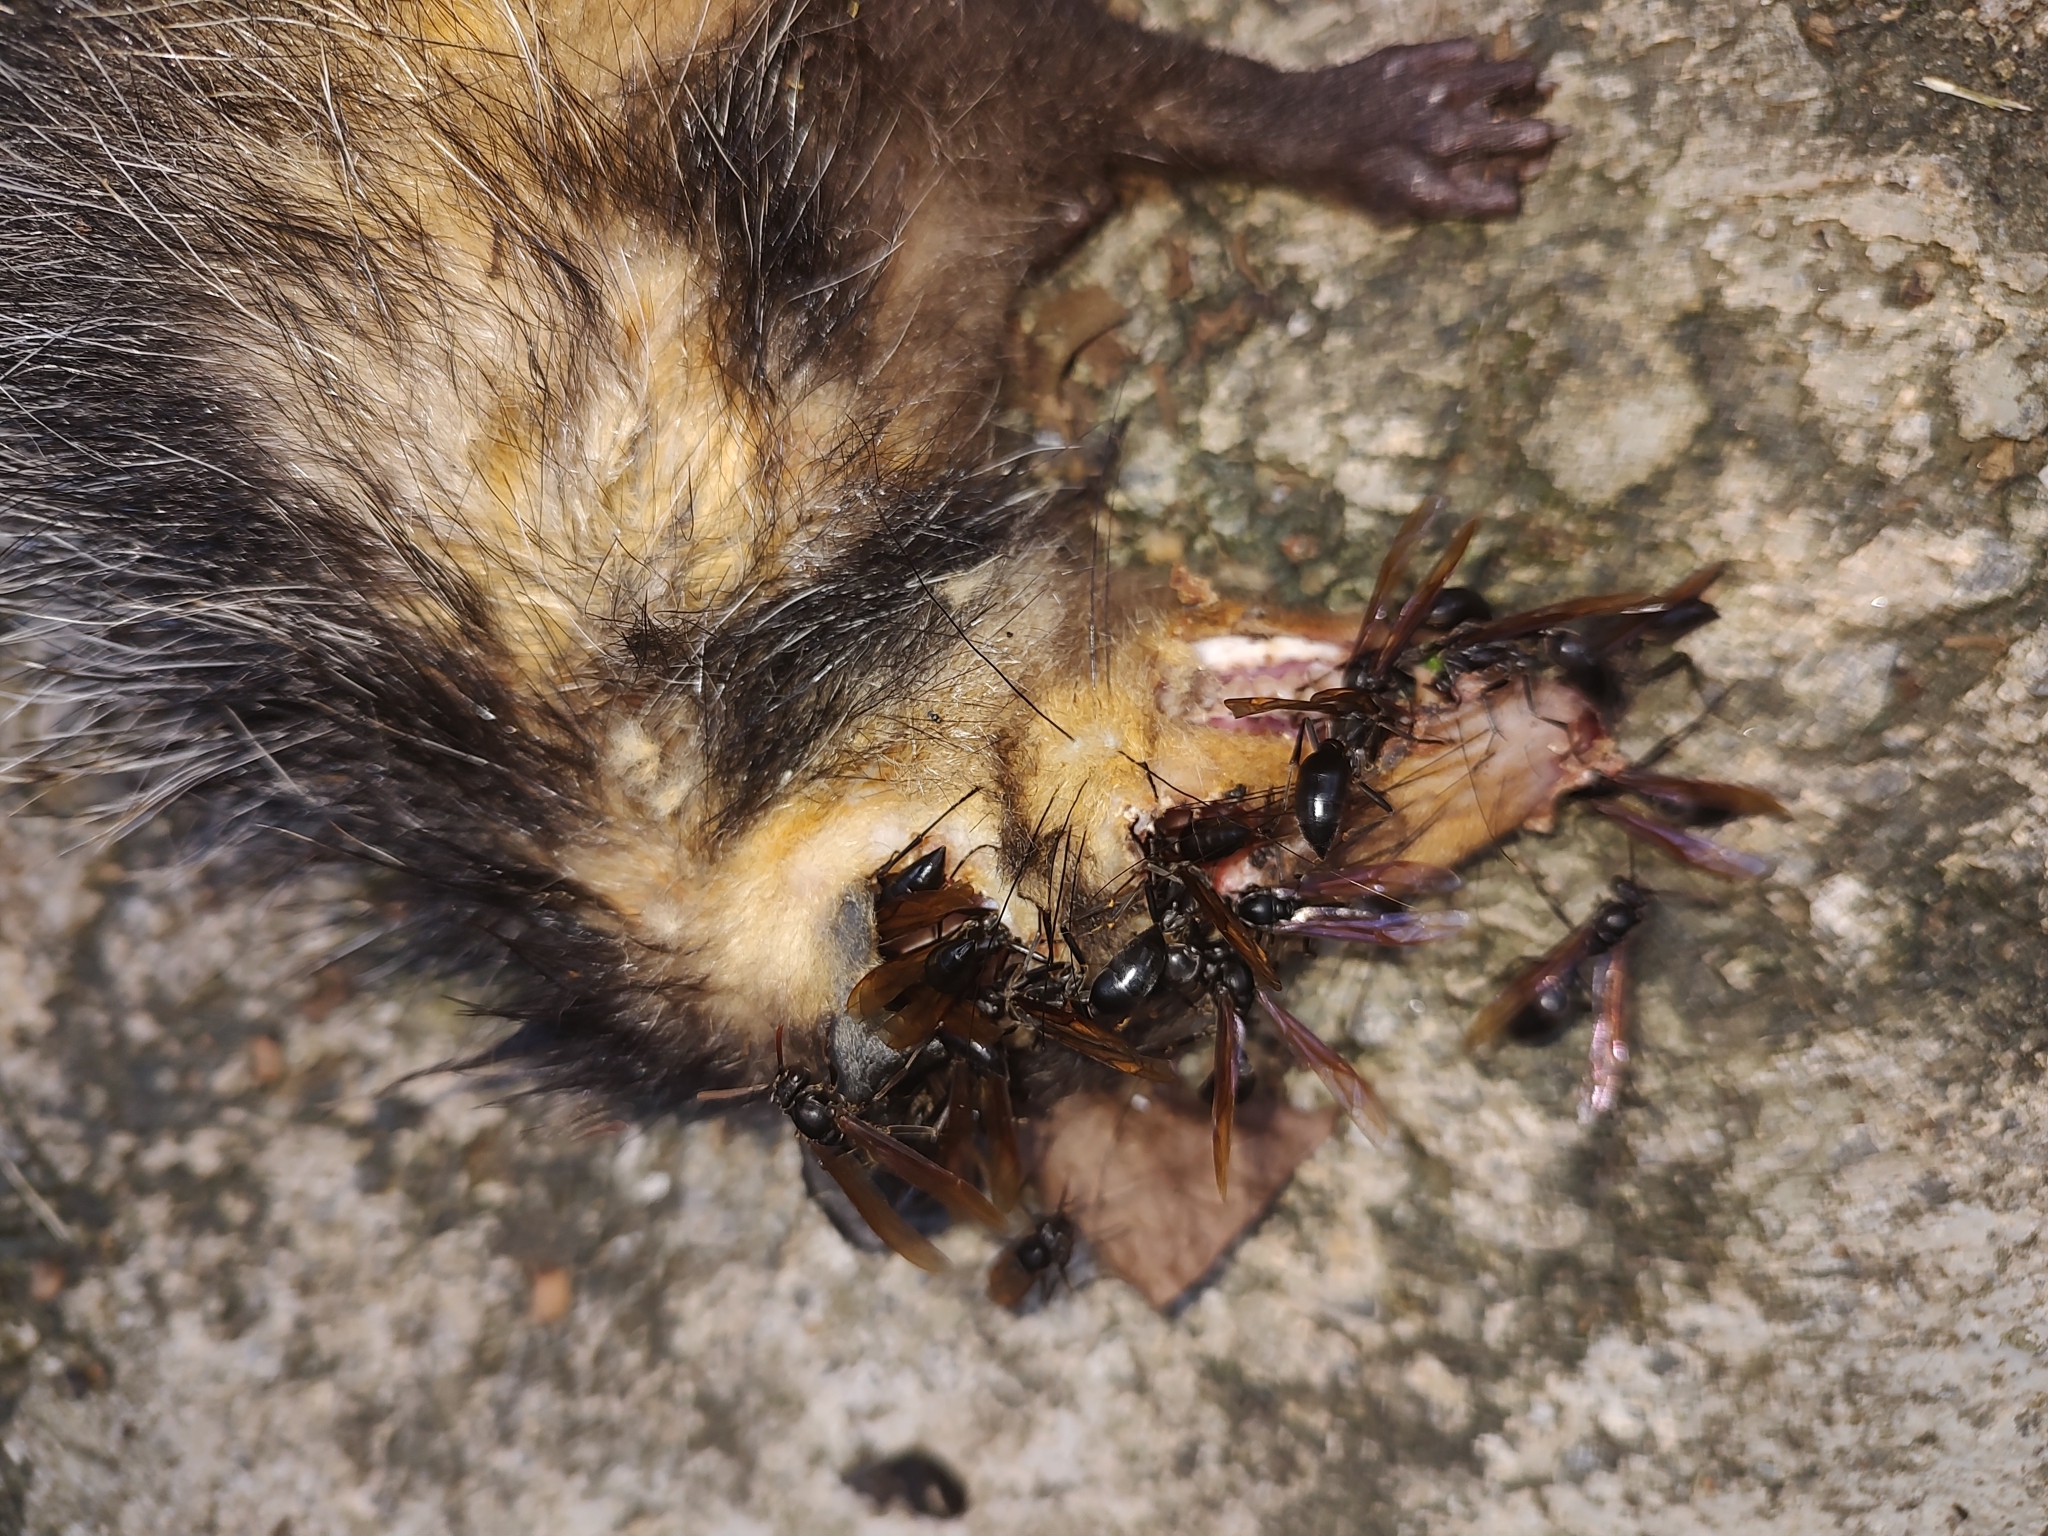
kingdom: Animalia
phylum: Chordata
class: Mammalia
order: Didelphimorphia
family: Didelphidae
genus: Didelphis
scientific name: Didelphis aurita
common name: Big-eared opossum
